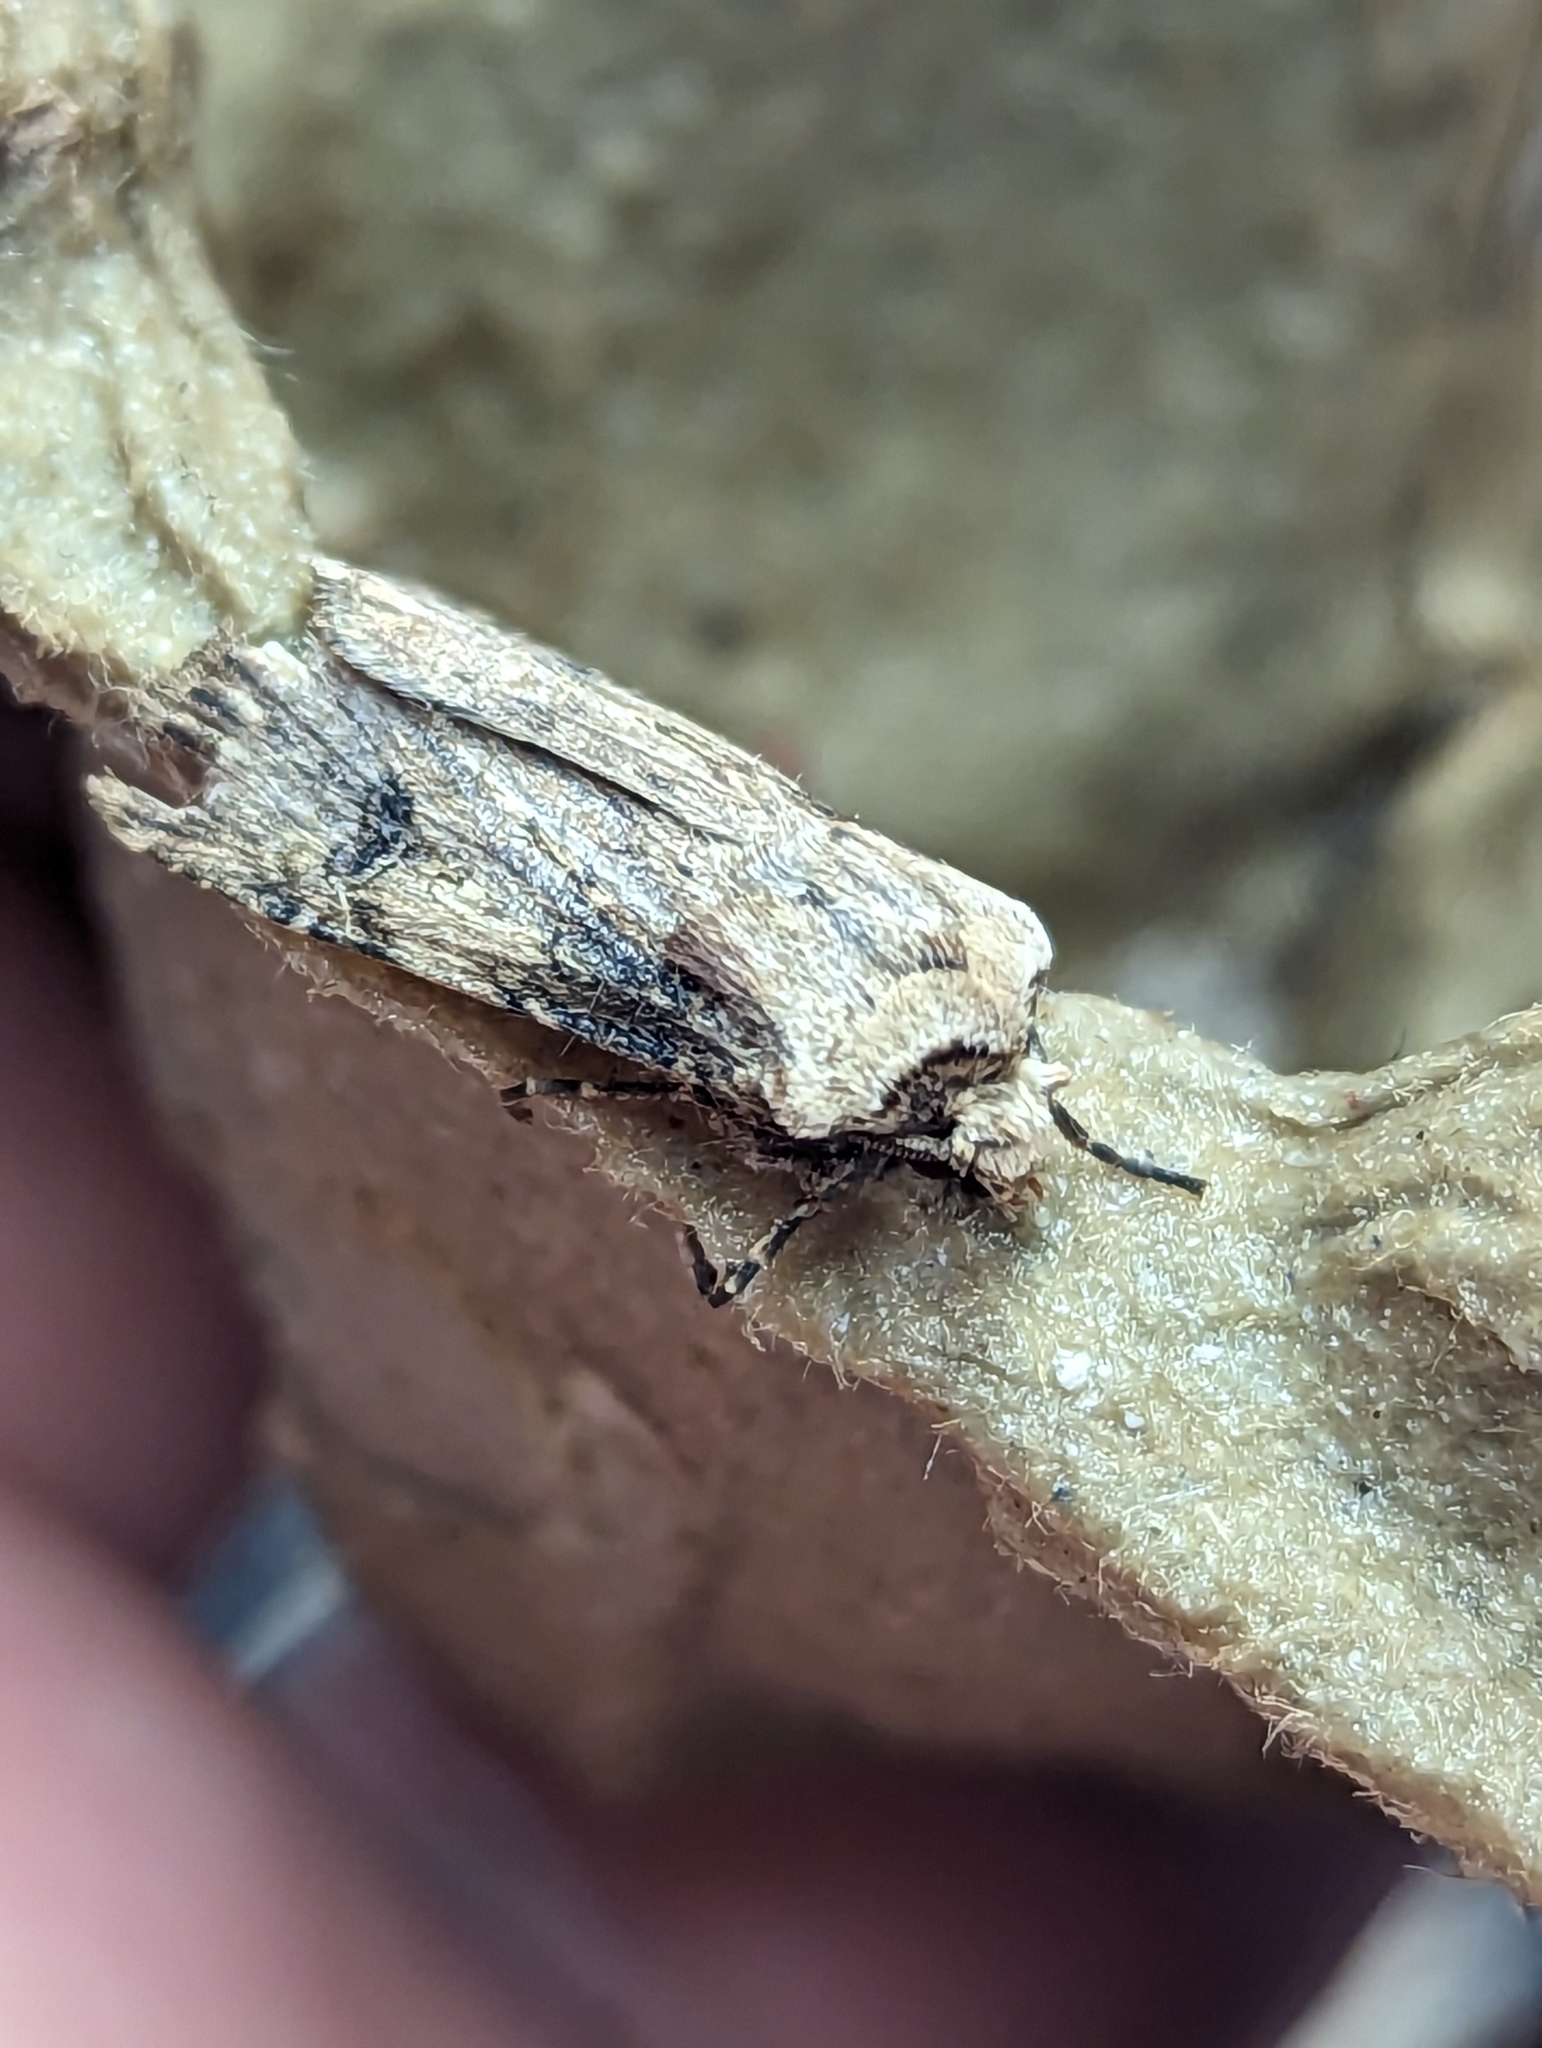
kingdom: Animalia
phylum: Arthropoda
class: Insecta
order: Lepidoptera
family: Noctuidae
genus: Agrotis
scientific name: Agrotis puta
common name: Shuttle-shaped dart
